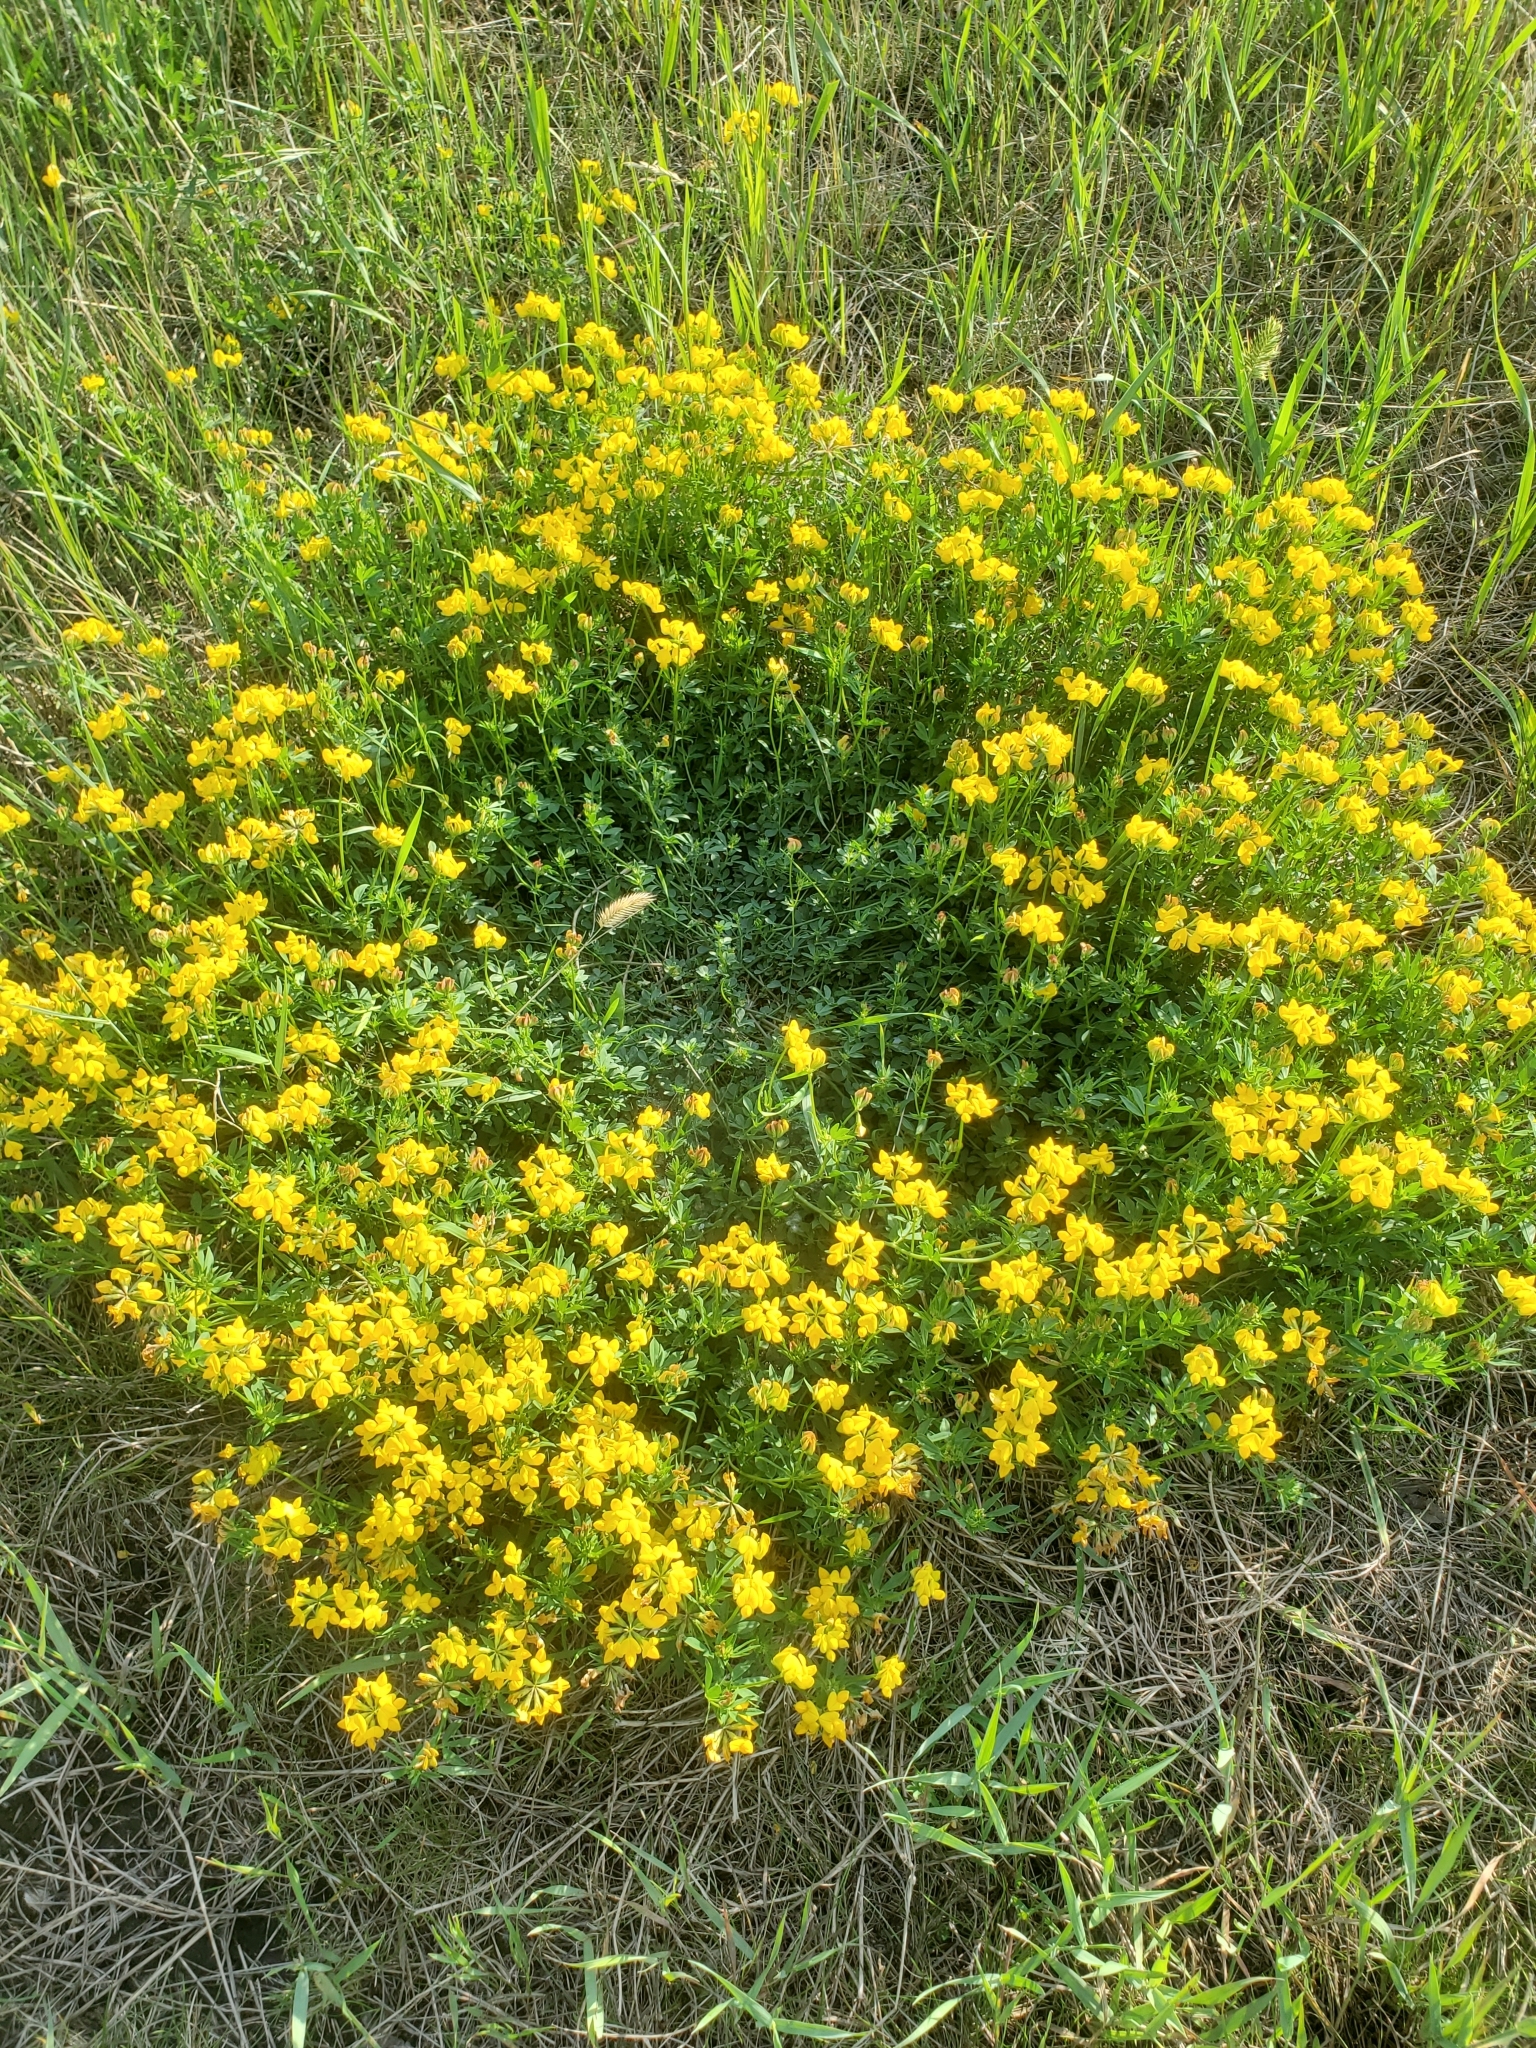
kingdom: Plantae
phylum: Tracheophyta
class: Magnoliopsida
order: Fabales
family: Fabaceae
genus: Lotus
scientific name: Lotus corniculatus
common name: Common bird's-foot-trefoil
